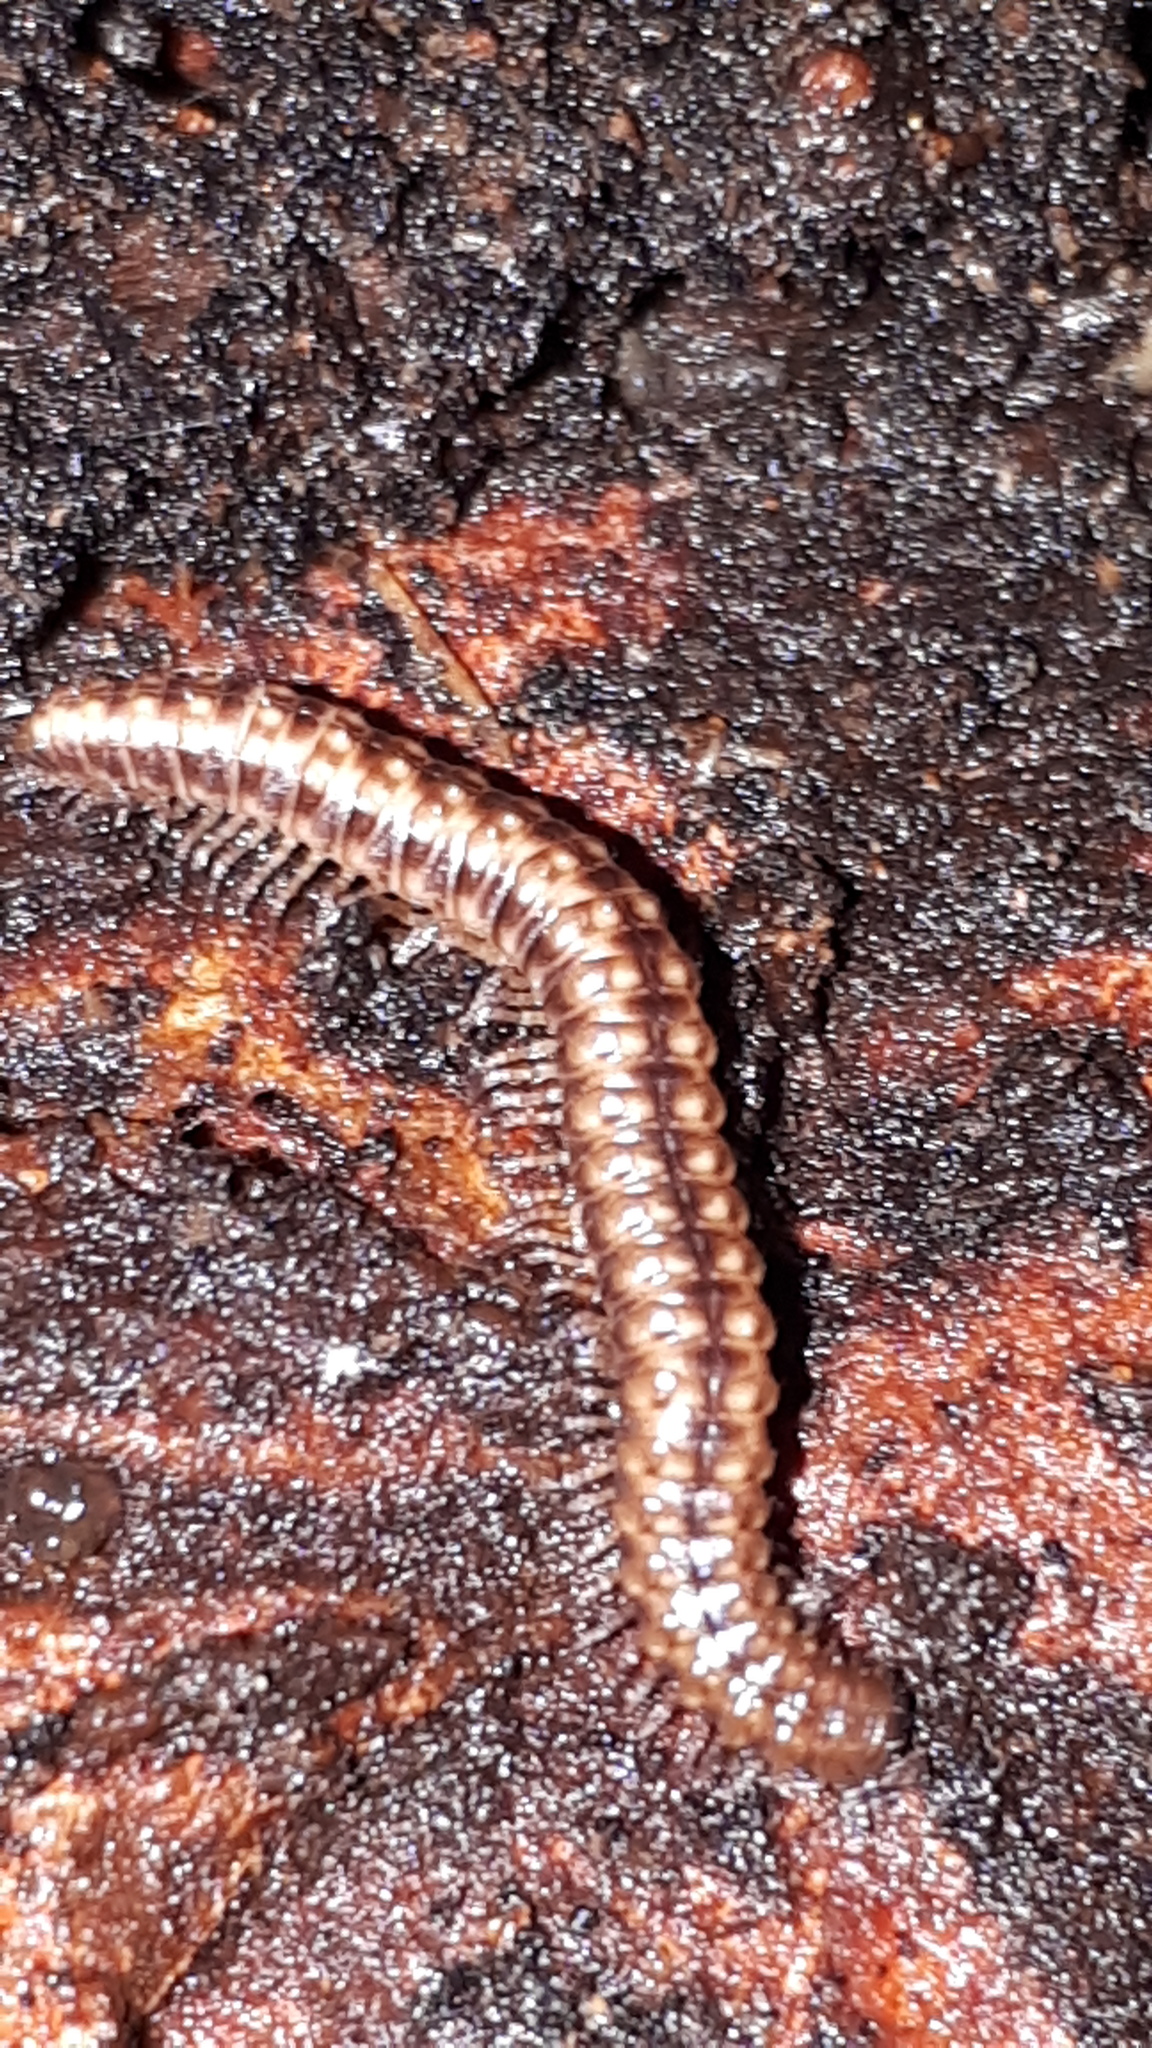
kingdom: Animalia
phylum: Arthropoda
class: Diplopoda
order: Chordeumatida
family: Craspedosomatidae
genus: Craspedosoma
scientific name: Craspedosoma rawlinsii
